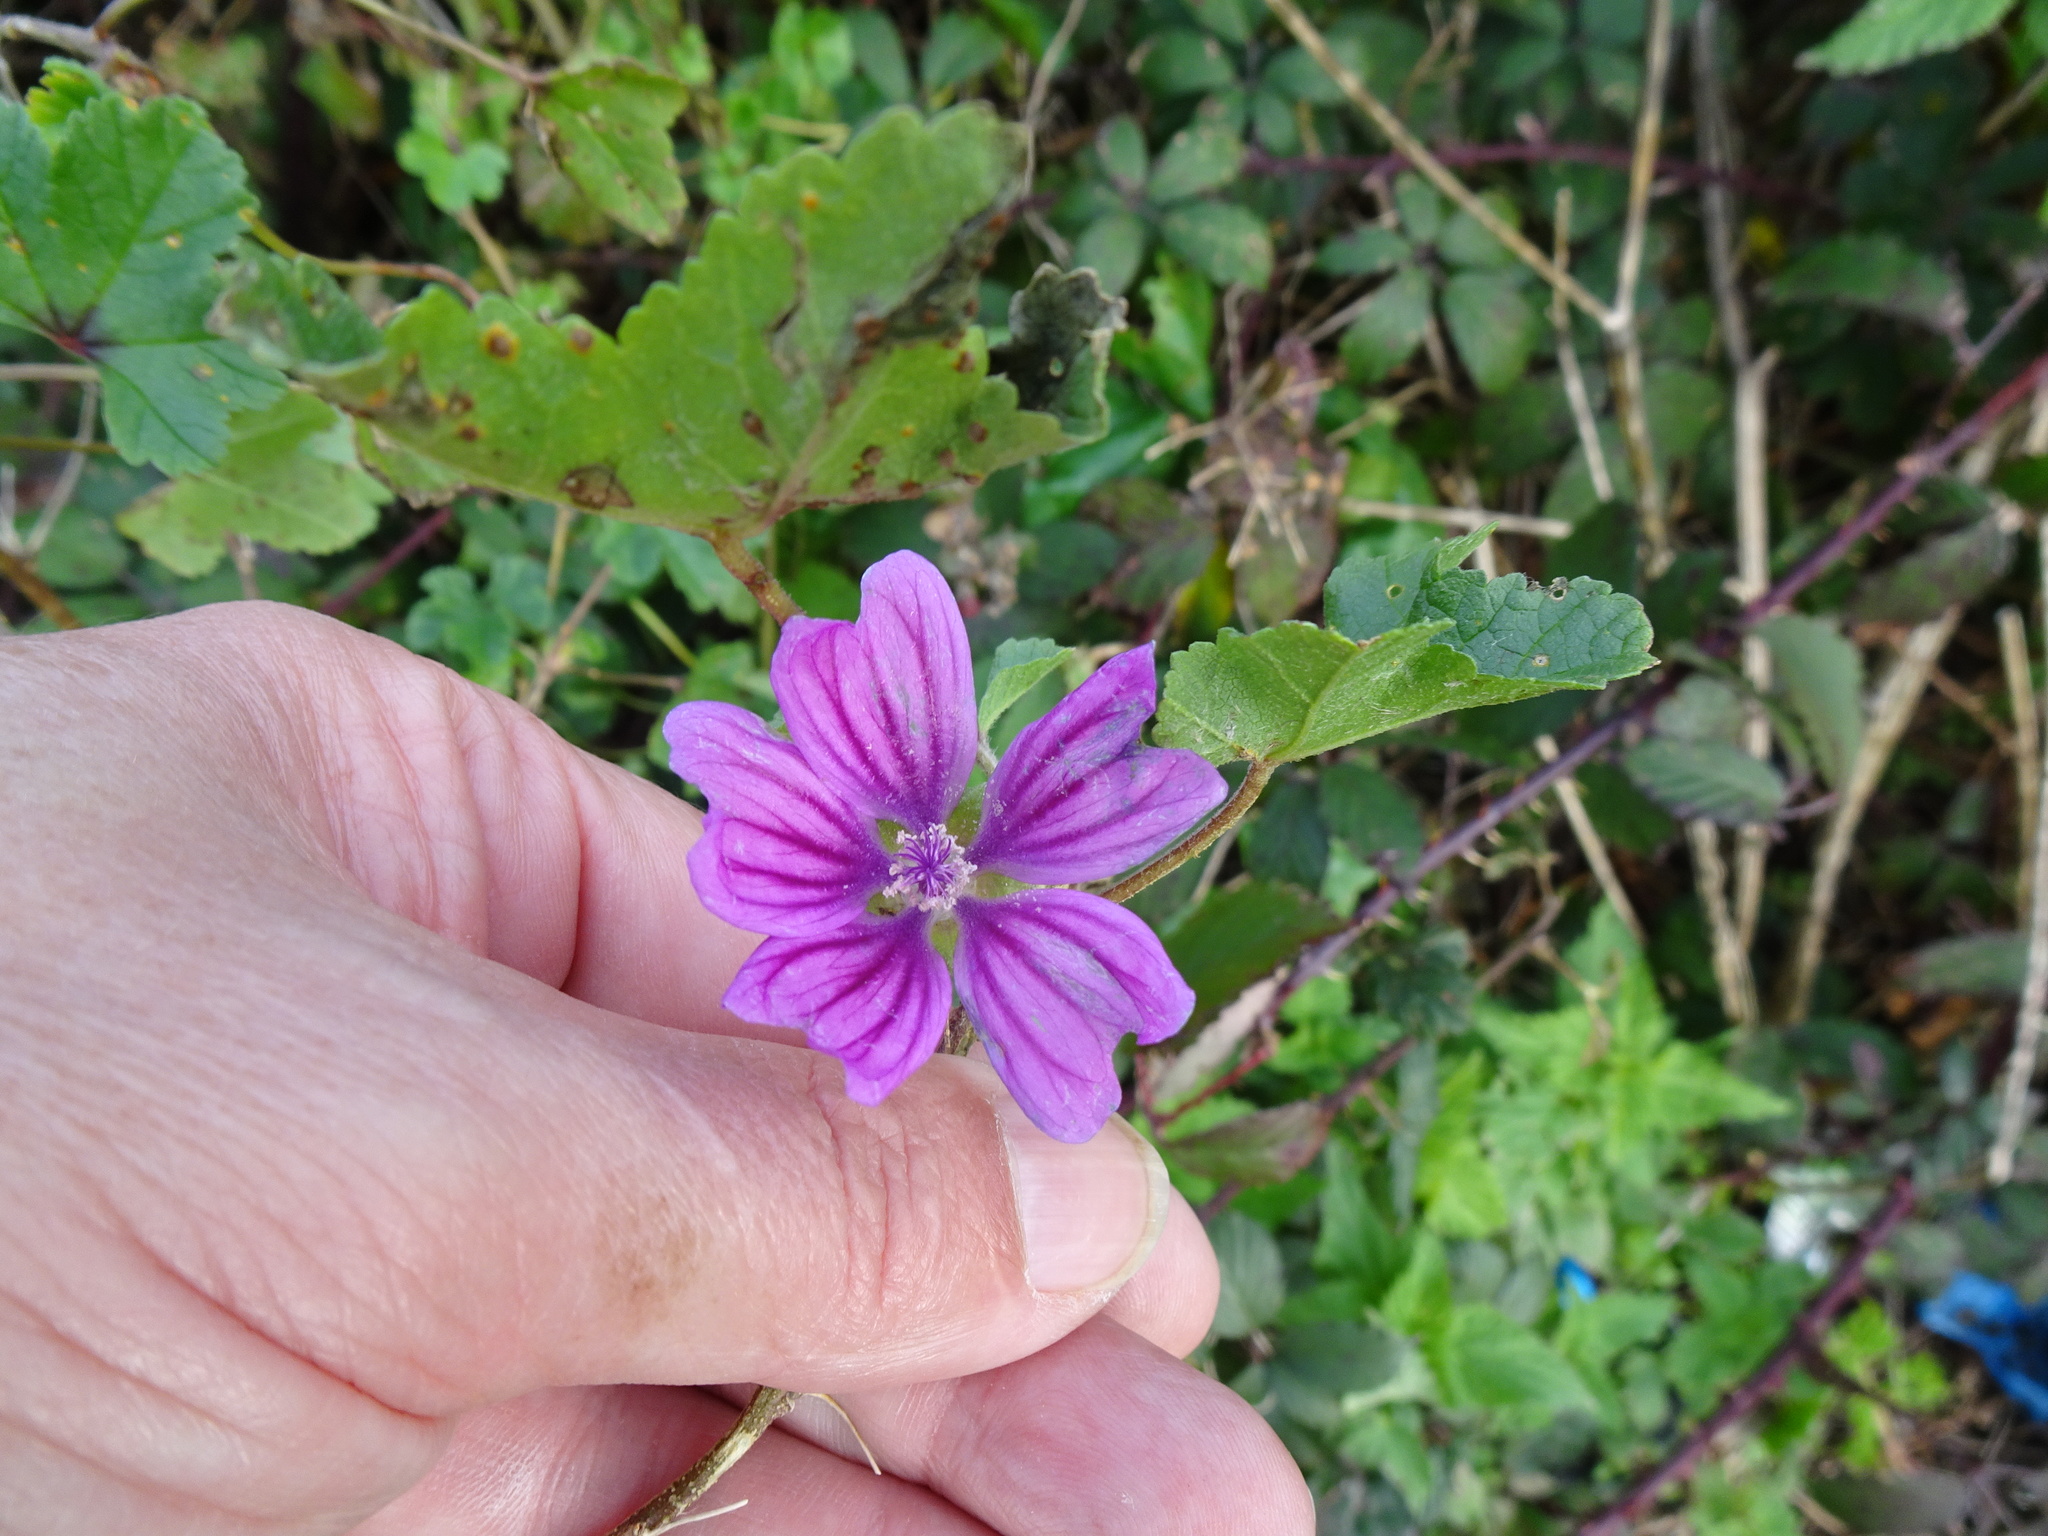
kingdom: Plantae
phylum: Tracheophyta
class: Magnoliopsida
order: Malvales
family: Malvaceae
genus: Malva
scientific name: Malva sylvestris
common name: Common mallow
